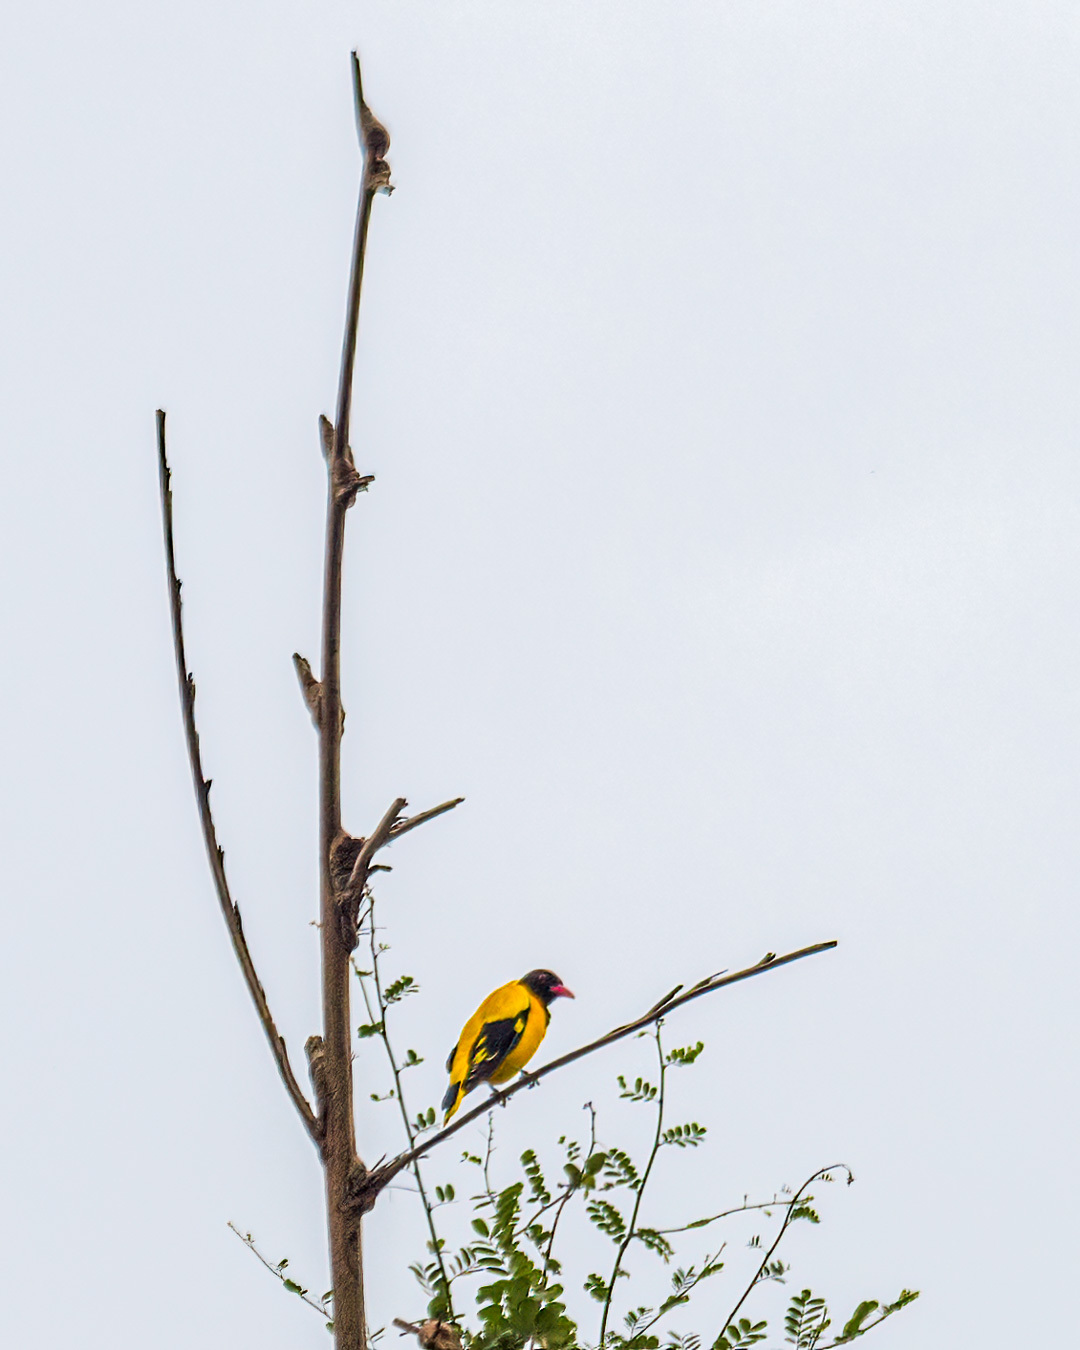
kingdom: Animalia
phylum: Chordata
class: Aves
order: Passeriformes
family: Oriolidae
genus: Oriolus
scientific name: Oriolus xanthornus
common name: Black-hooded oriole
